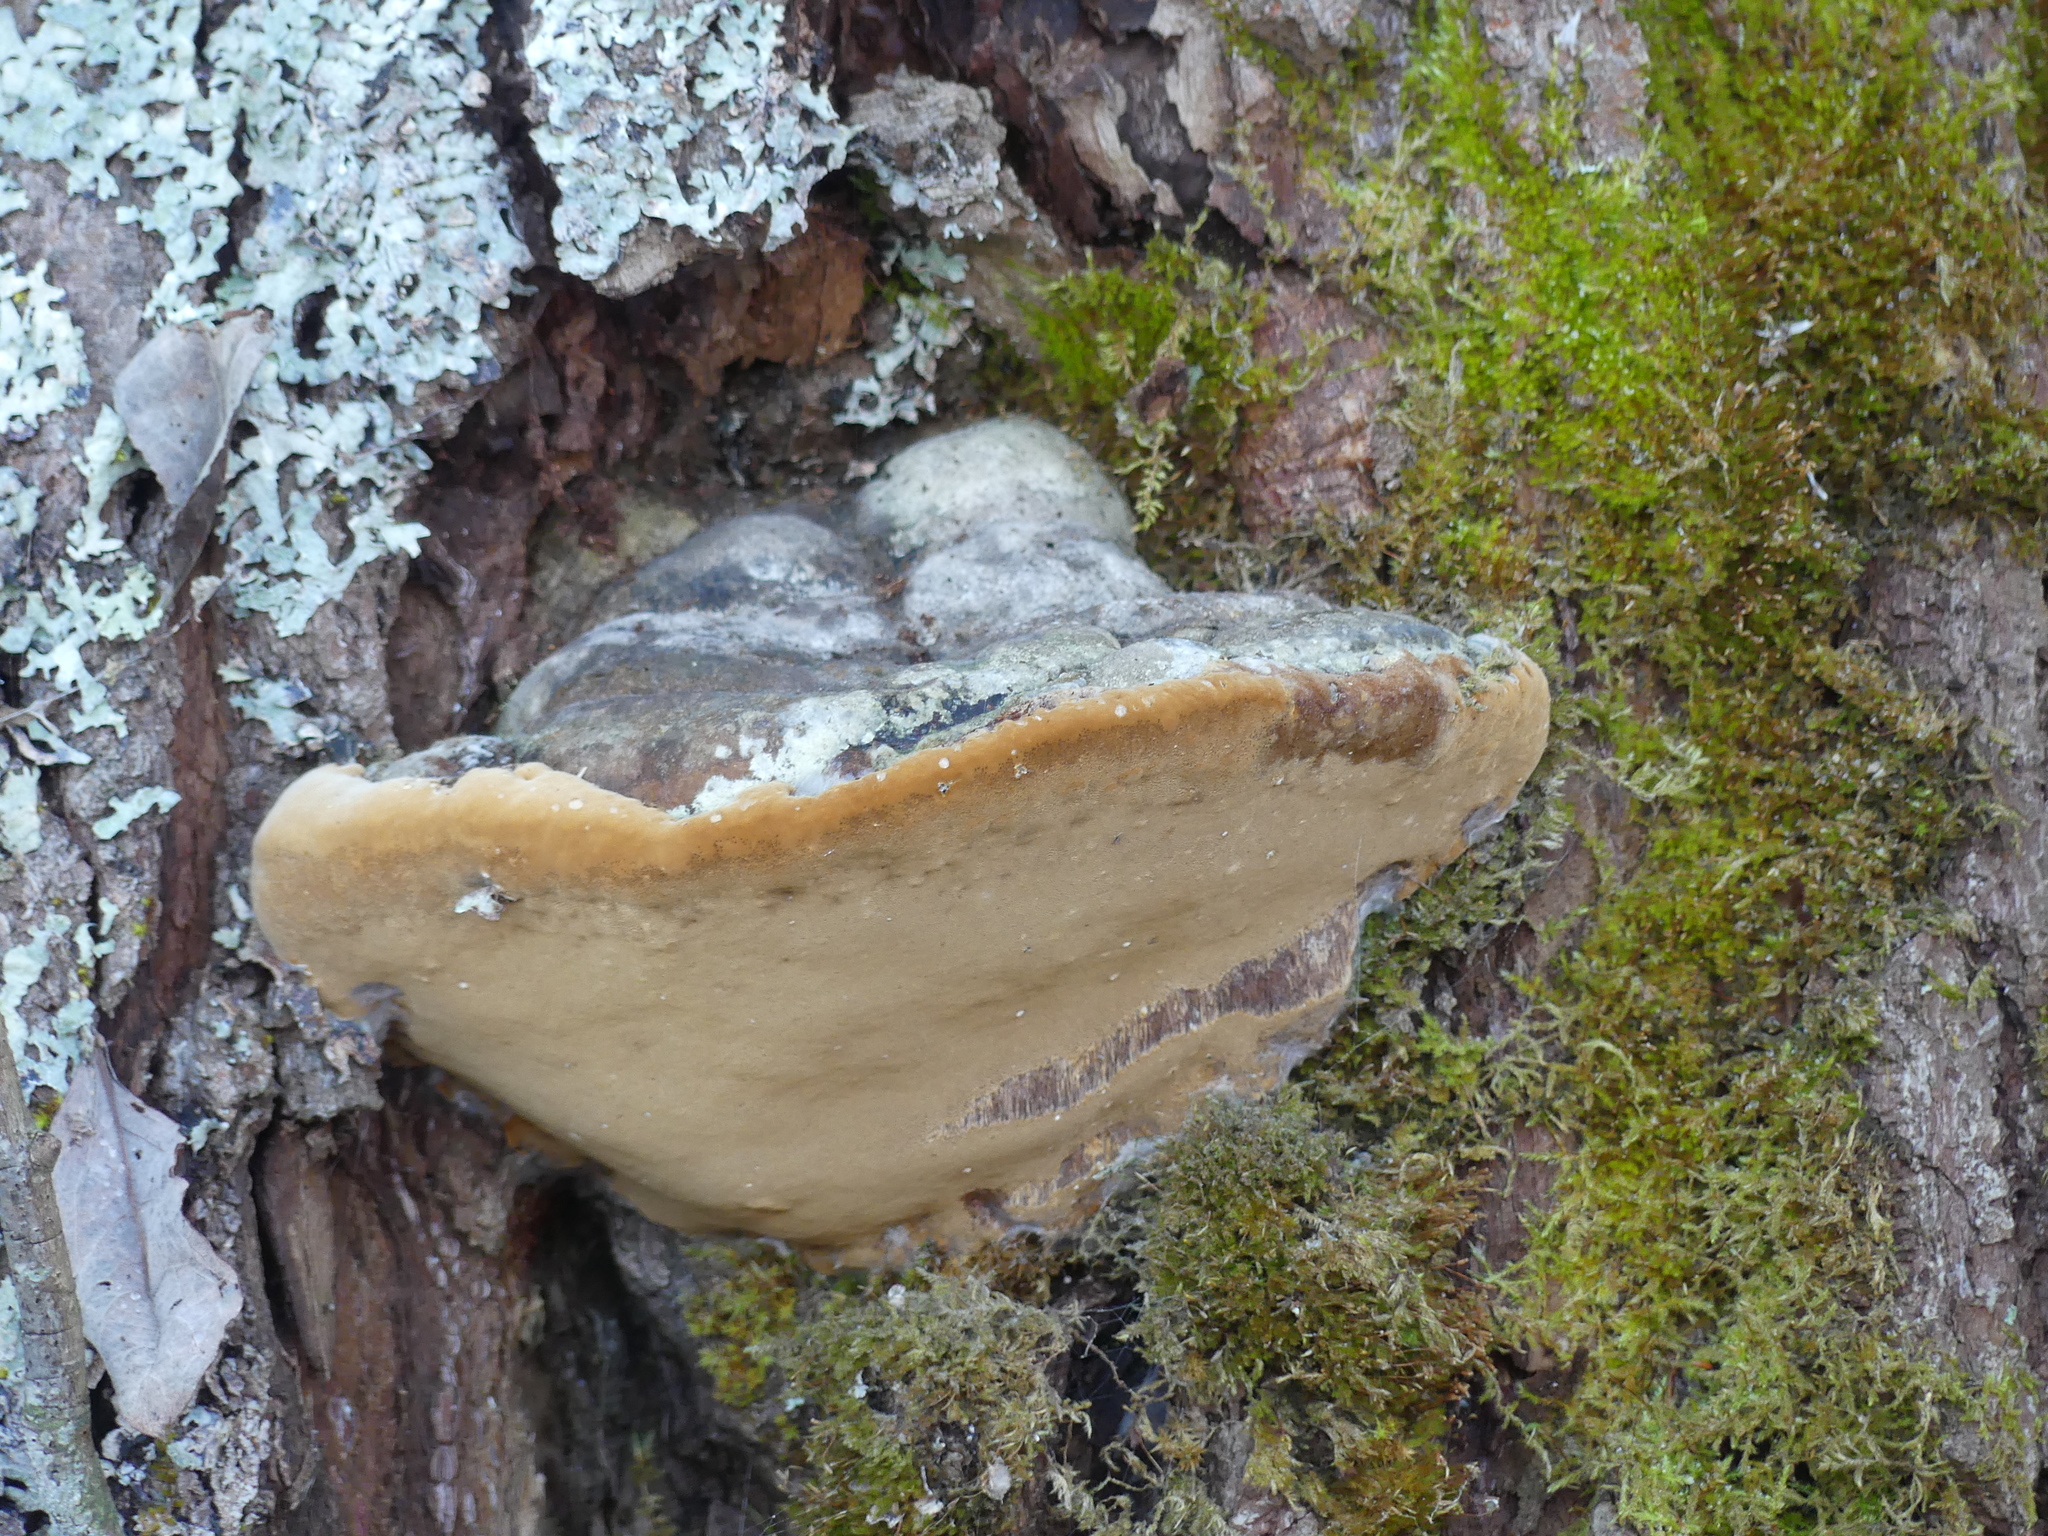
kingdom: Fungi
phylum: Basidiomycota
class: Agaricomycetes
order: Hymenochaetales
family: Hymenochaetaceae
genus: Phellinus
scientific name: Phellinus igniarius
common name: Willow bracket
